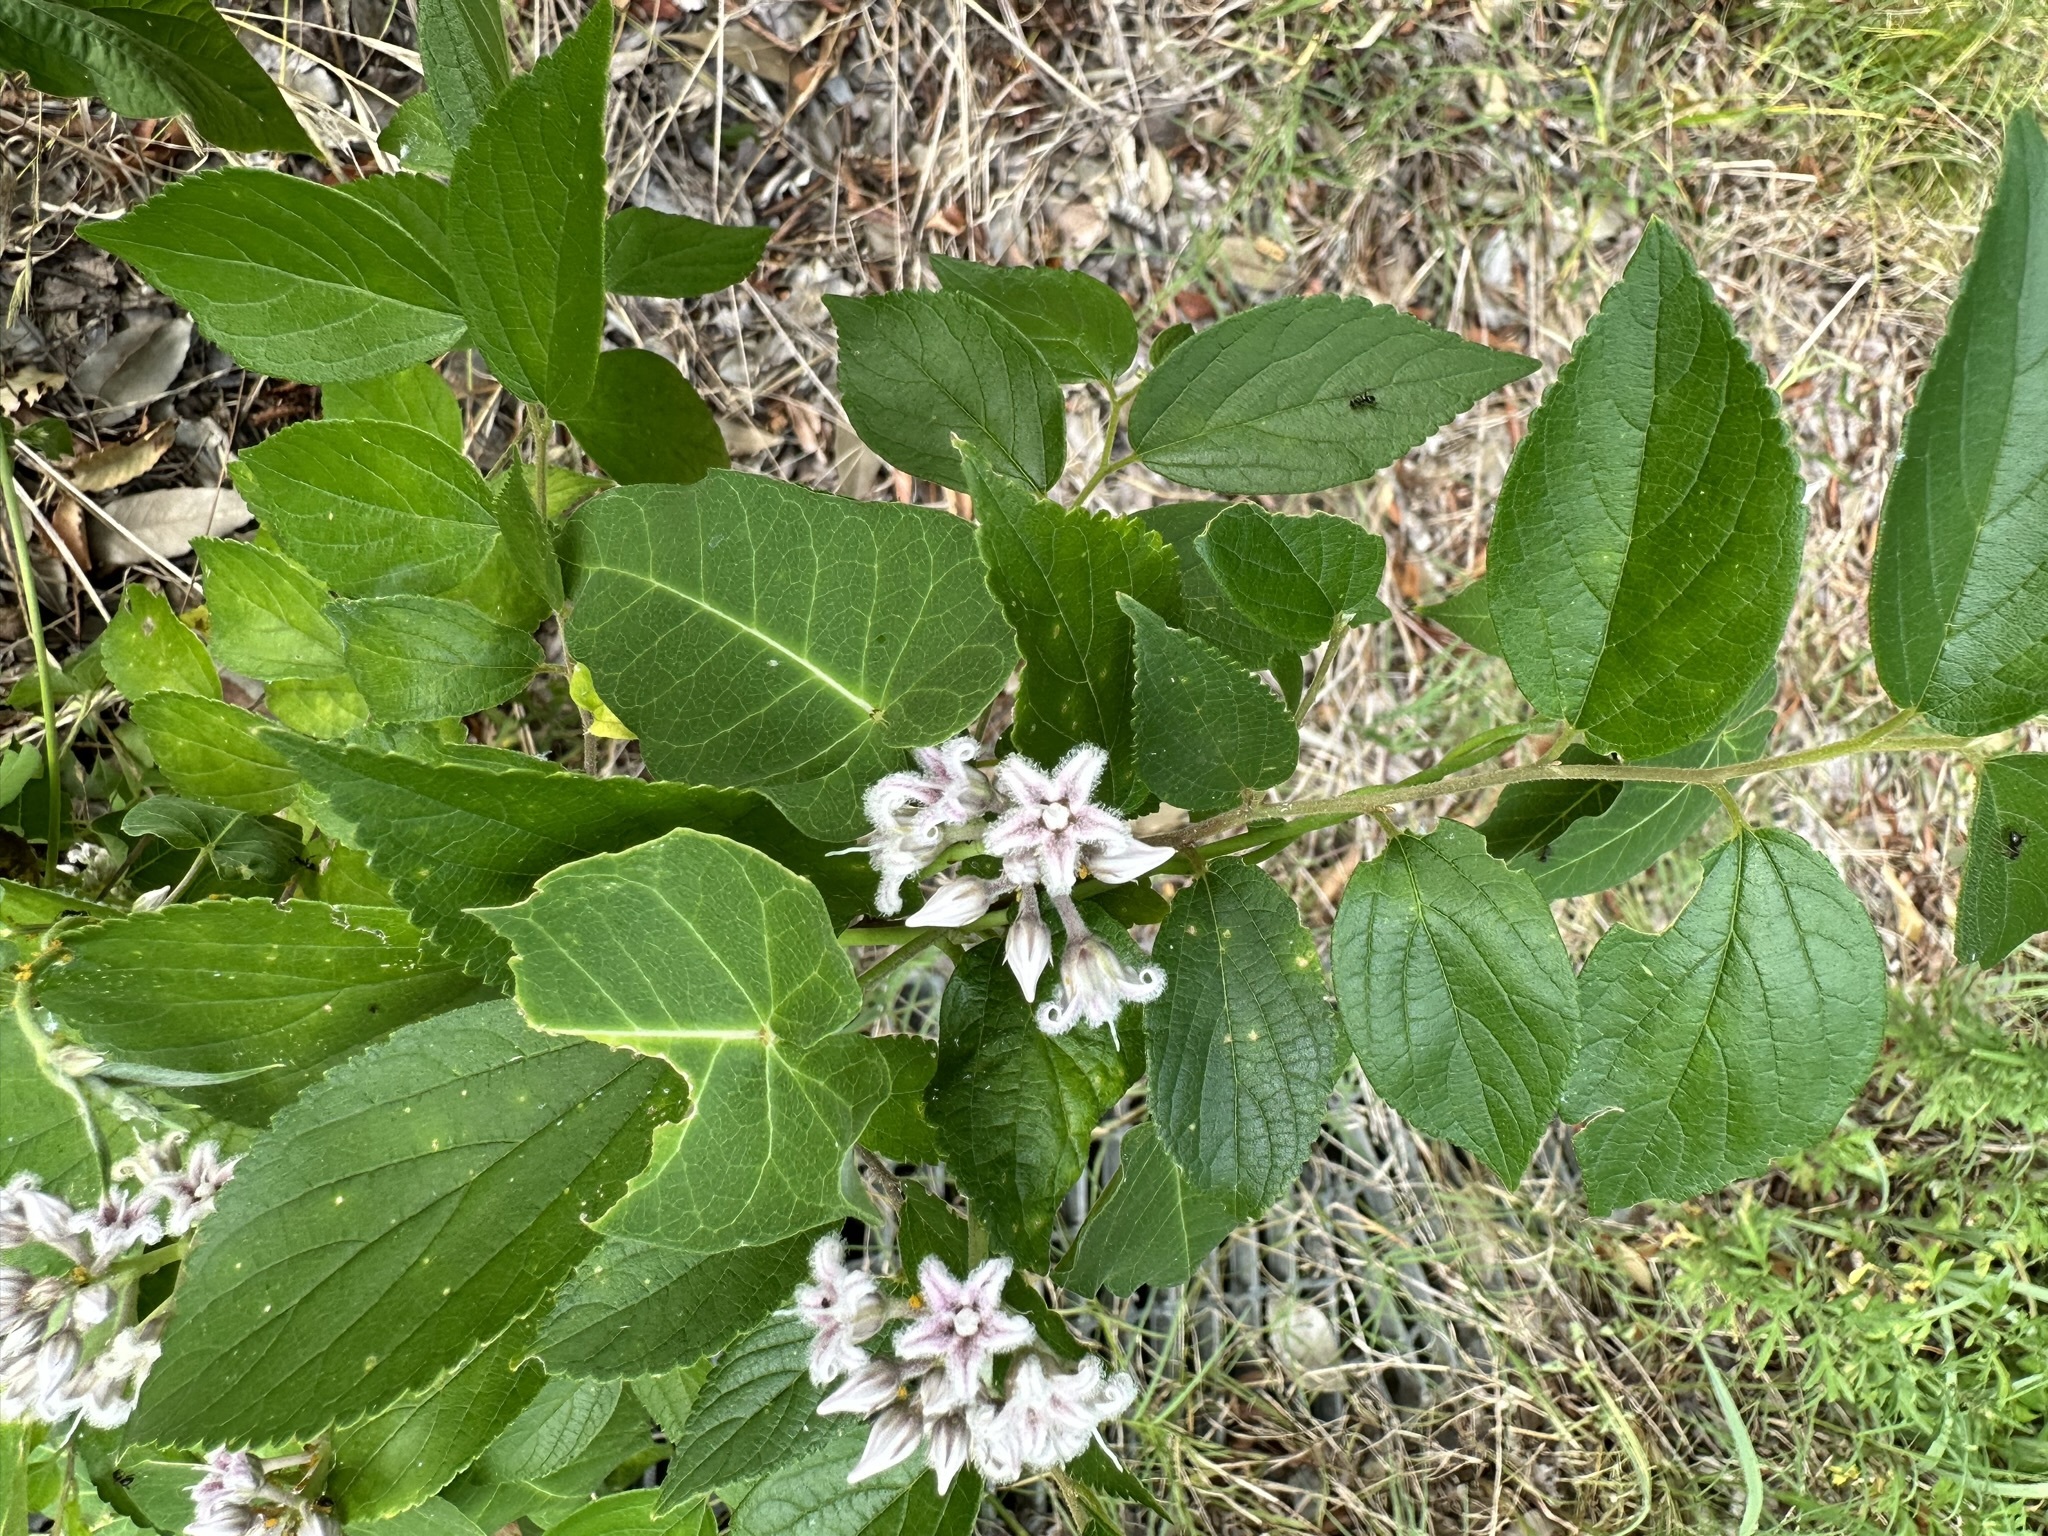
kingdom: Plantae
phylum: Tracheophyta
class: Magnoliopsida
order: Gentianales
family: Apocynaceae
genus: Cynanchum
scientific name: Cynanchum rostellatum
